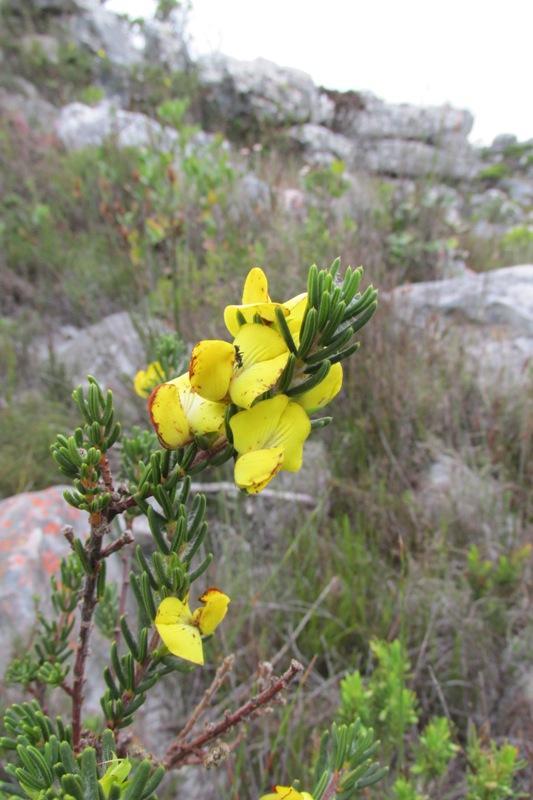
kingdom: Animalia
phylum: Arthropoda
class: Insecta
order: Hymenoptera
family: Formicidae
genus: Camponotus
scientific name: Camponotus niveosetosus
